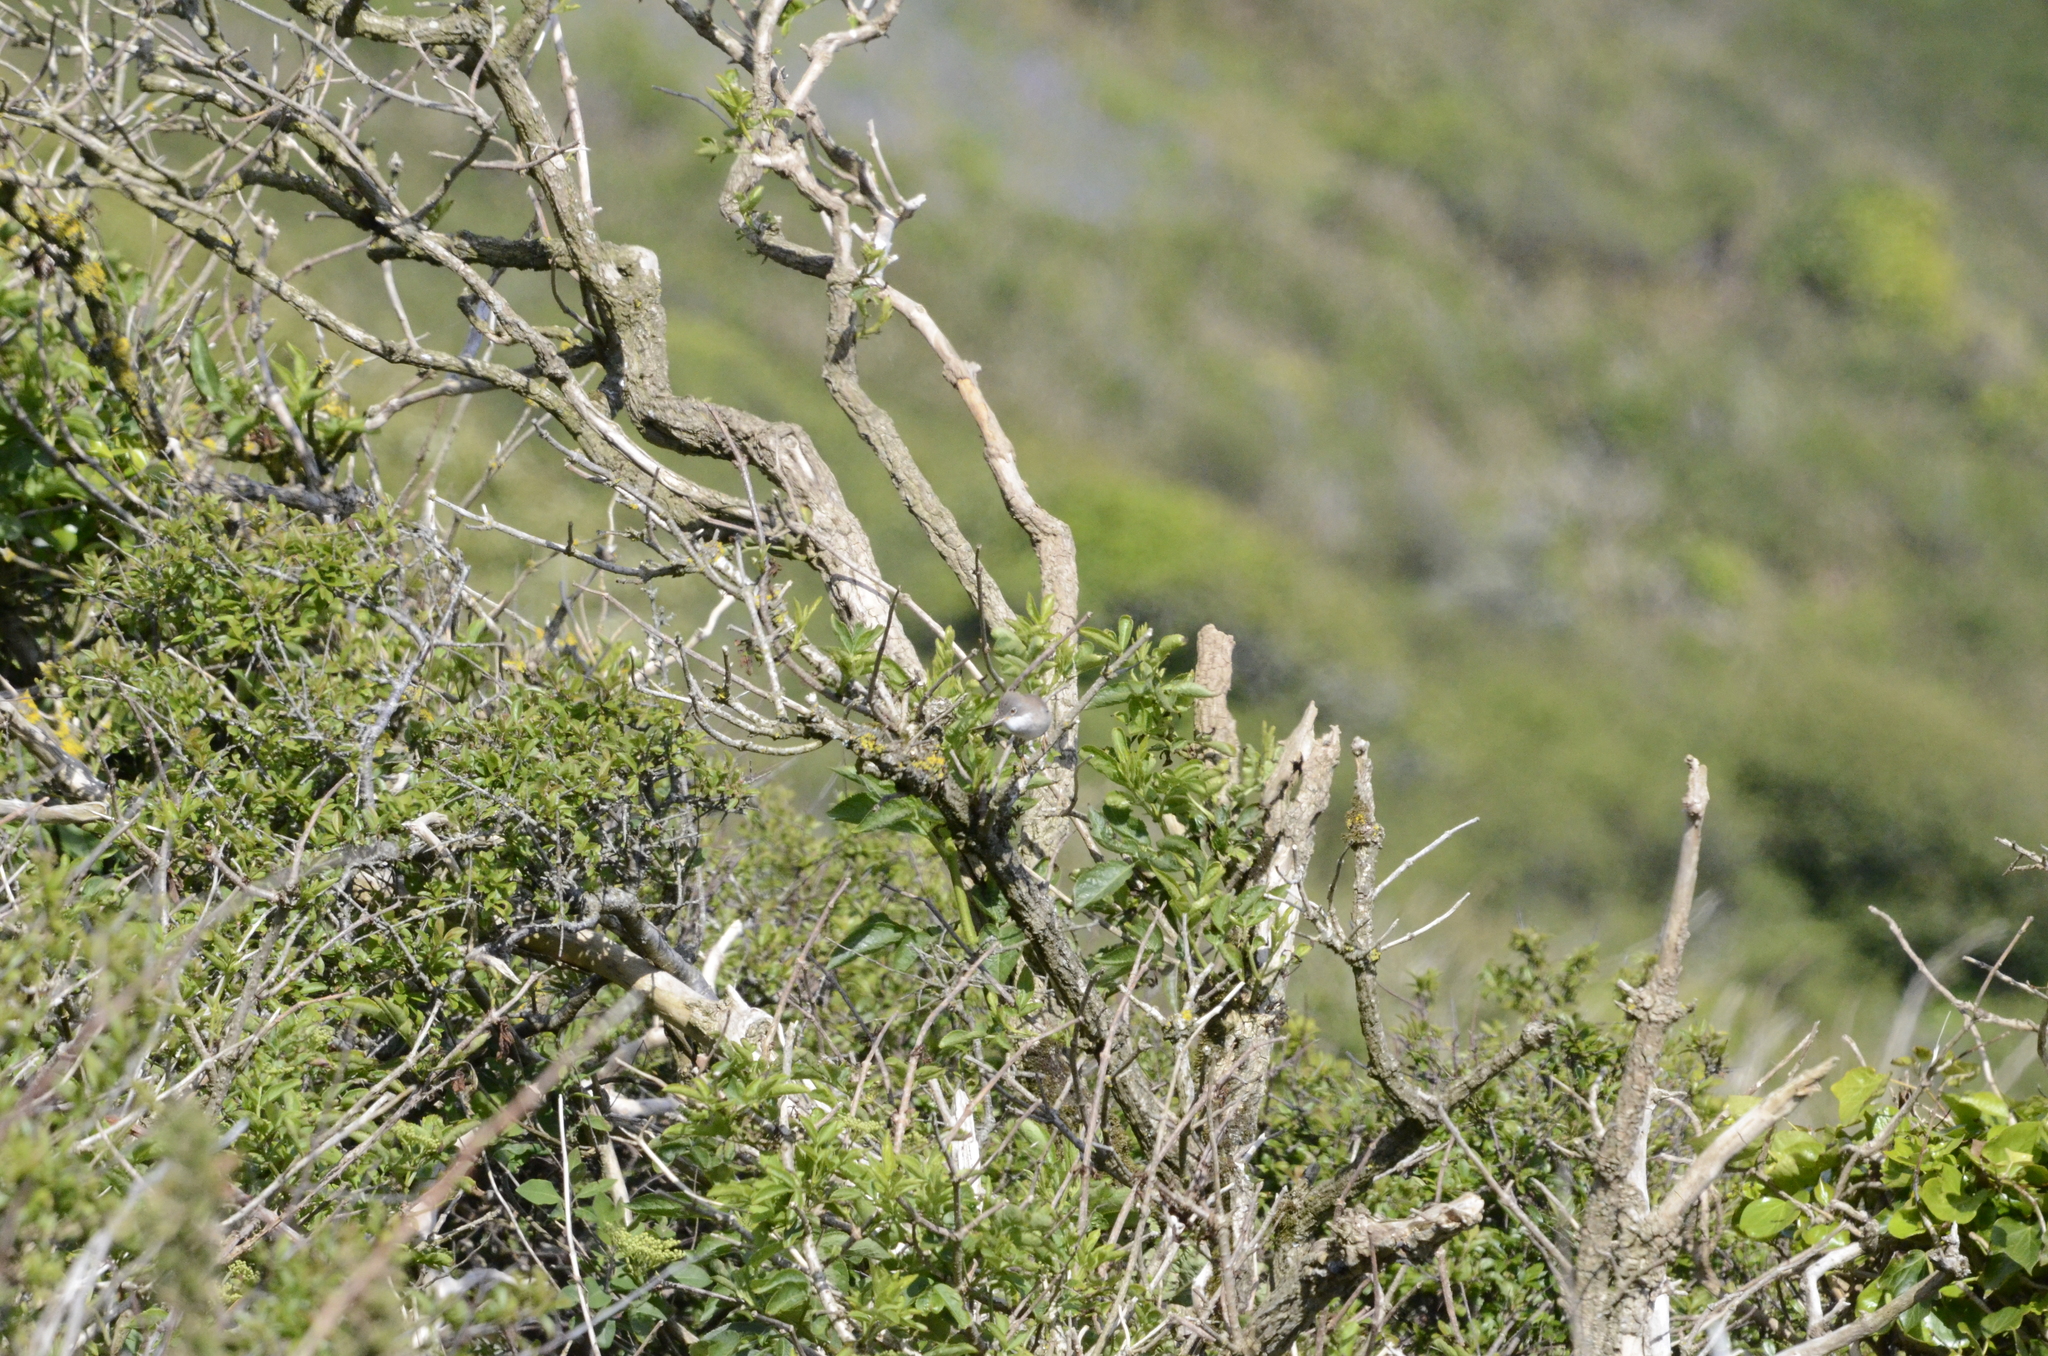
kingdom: Animalia
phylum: Chordata
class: Aves
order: Passeriformes
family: Sylviidae
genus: Sylvia
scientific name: Sylvia communis
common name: Common whitethroat
